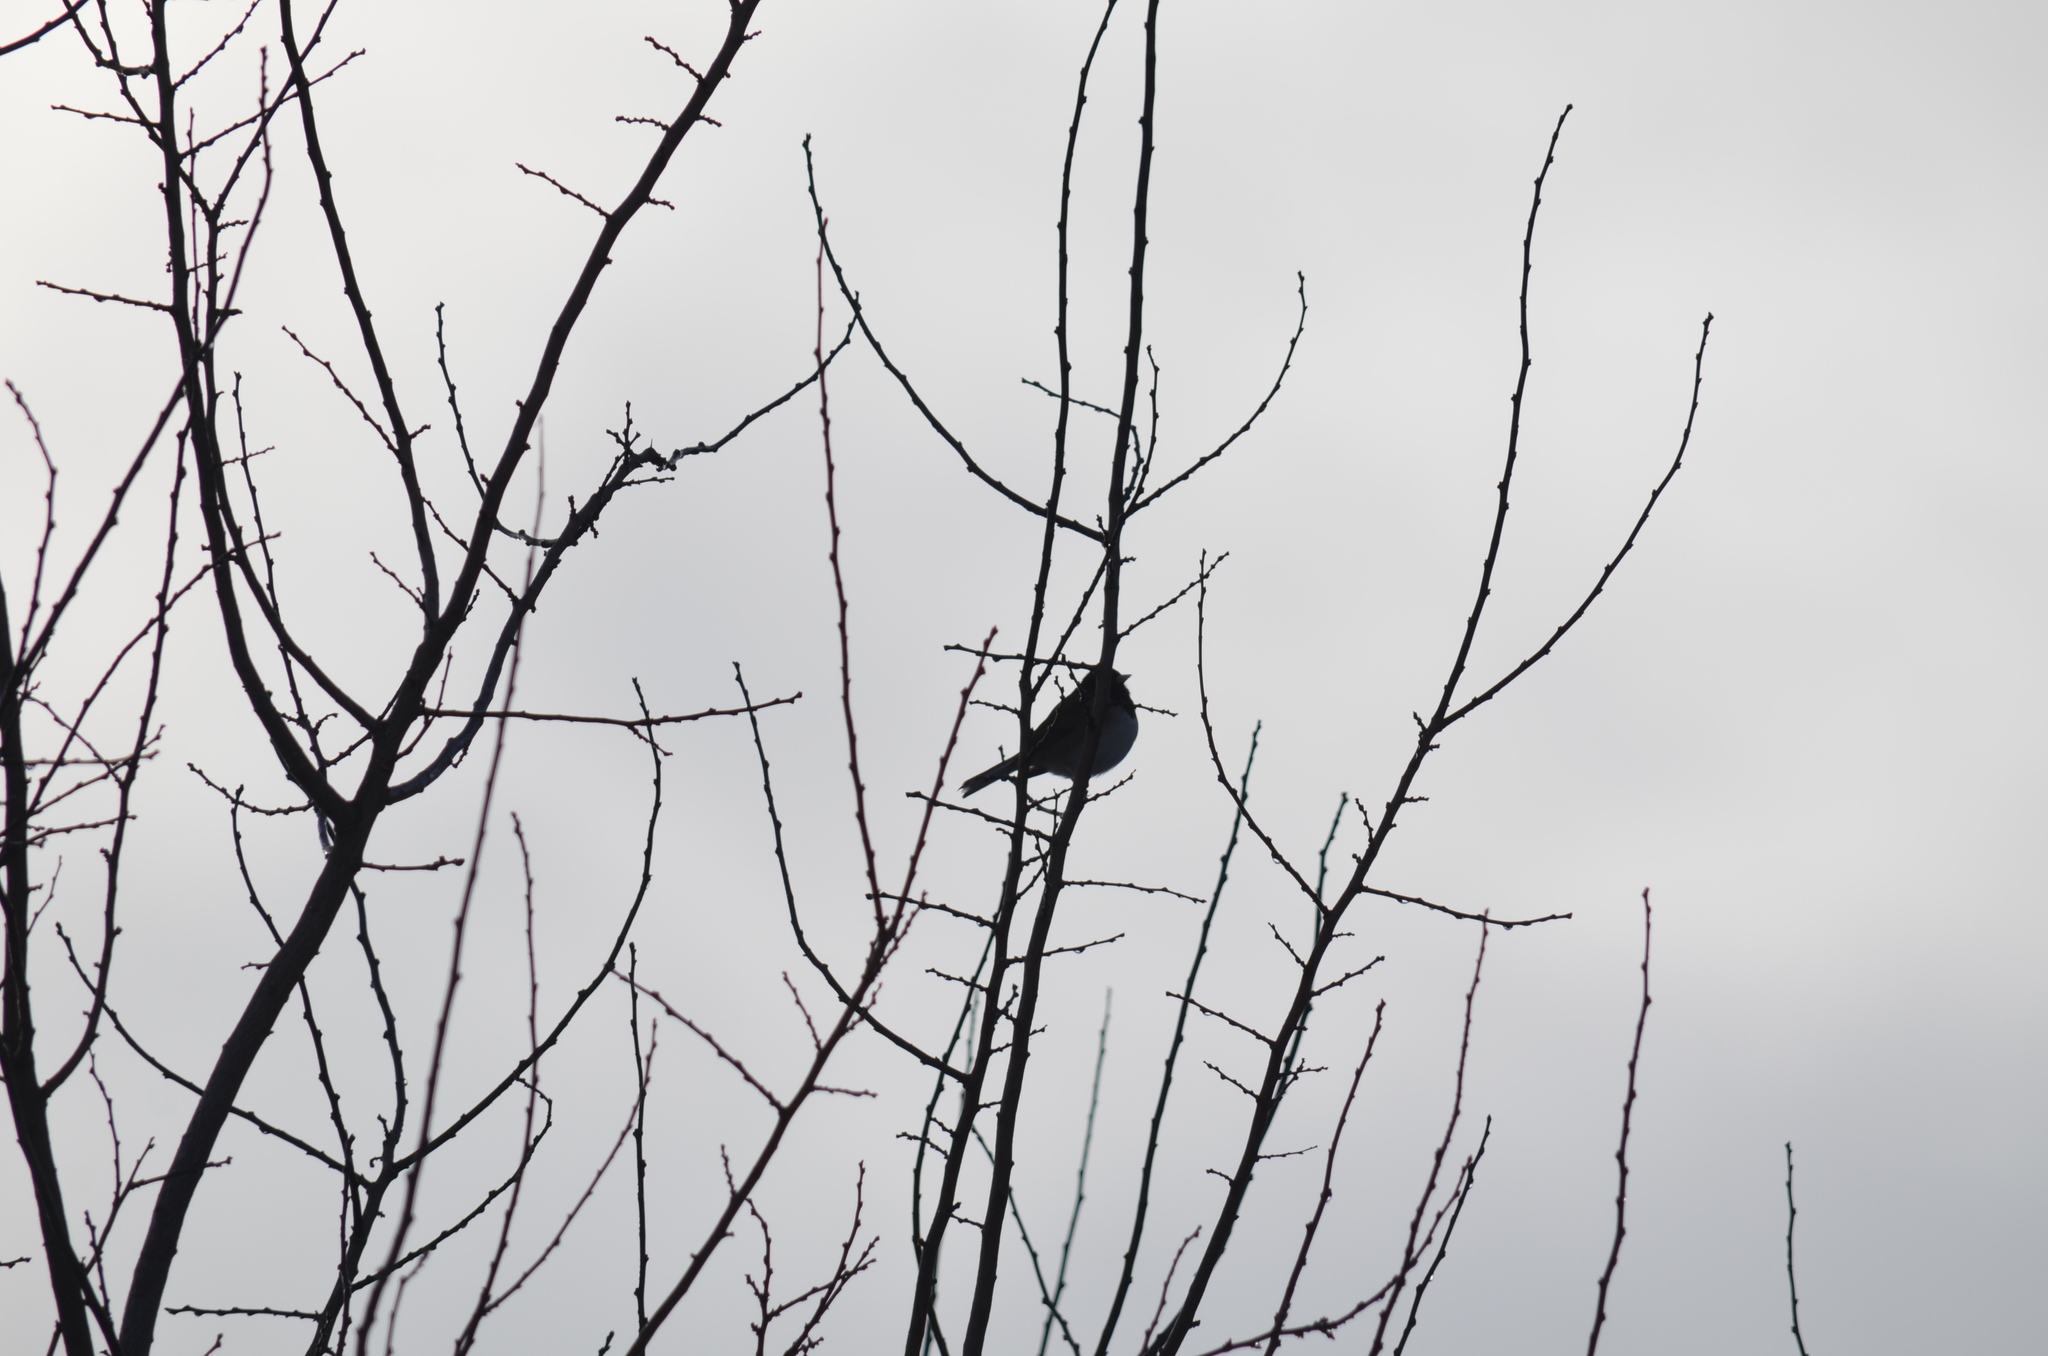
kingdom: Animalia
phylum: Chordata
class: Aves
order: Passeriformes
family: Passerellidae
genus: Junco
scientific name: Junco hyemalis
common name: Dark-eyed junco
